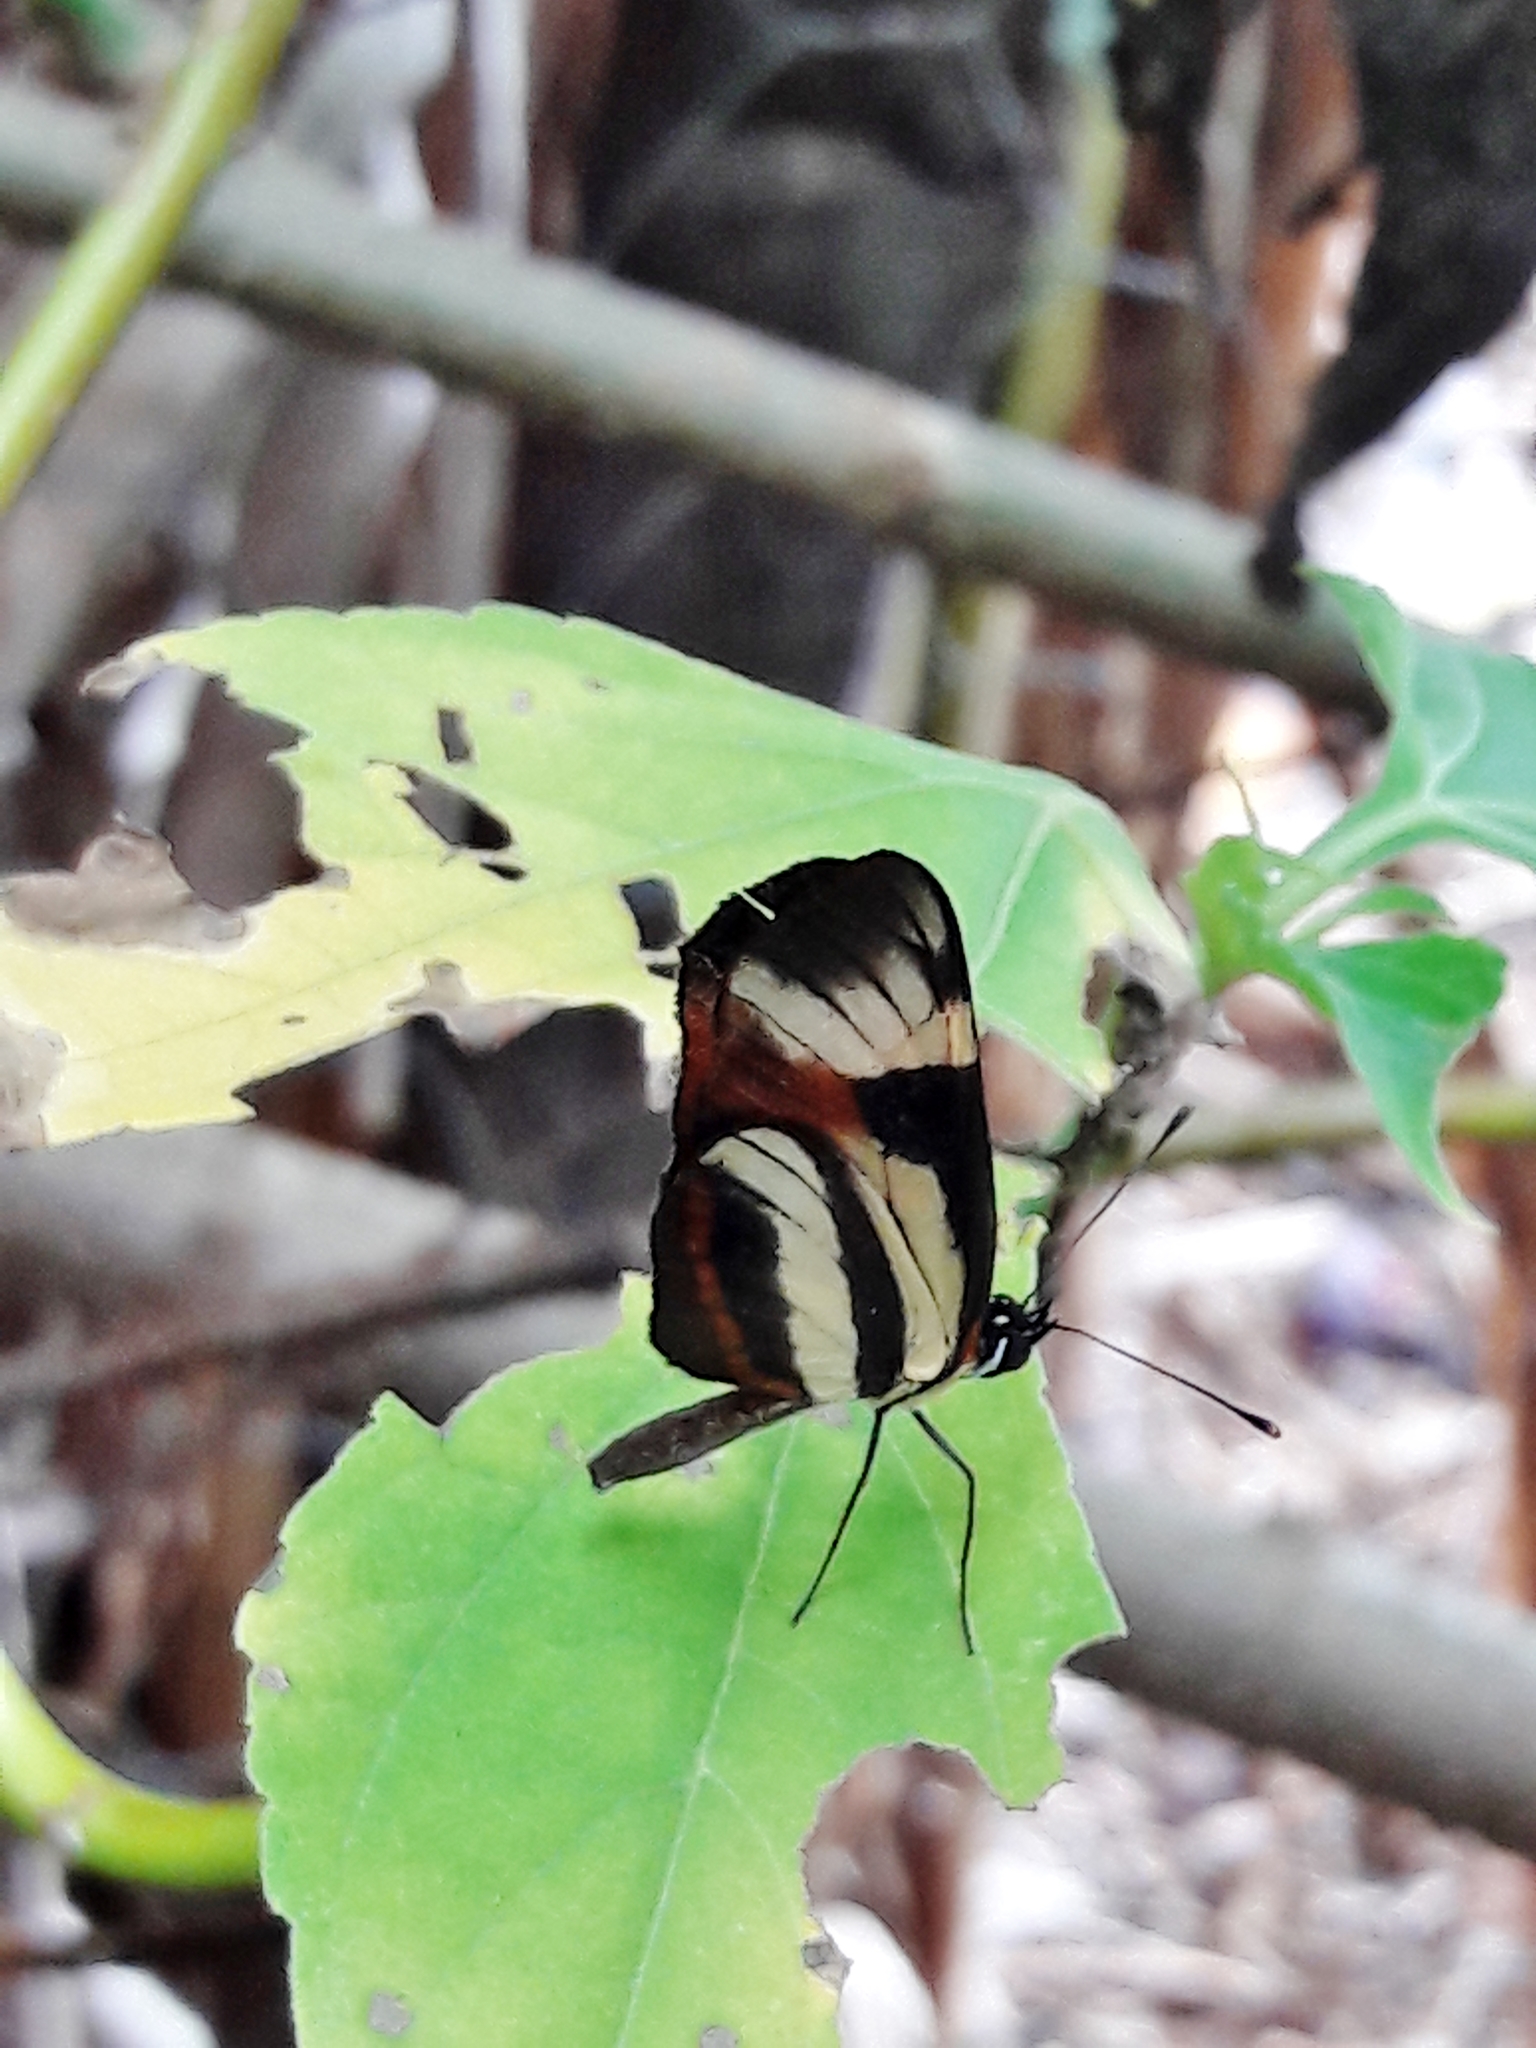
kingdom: Animalia
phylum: Arthropoda
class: Insecta
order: Lepidoptera
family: Nymphalidae
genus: Eresia
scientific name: Eresia lansdorfi
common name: Lansdorf's crescent
